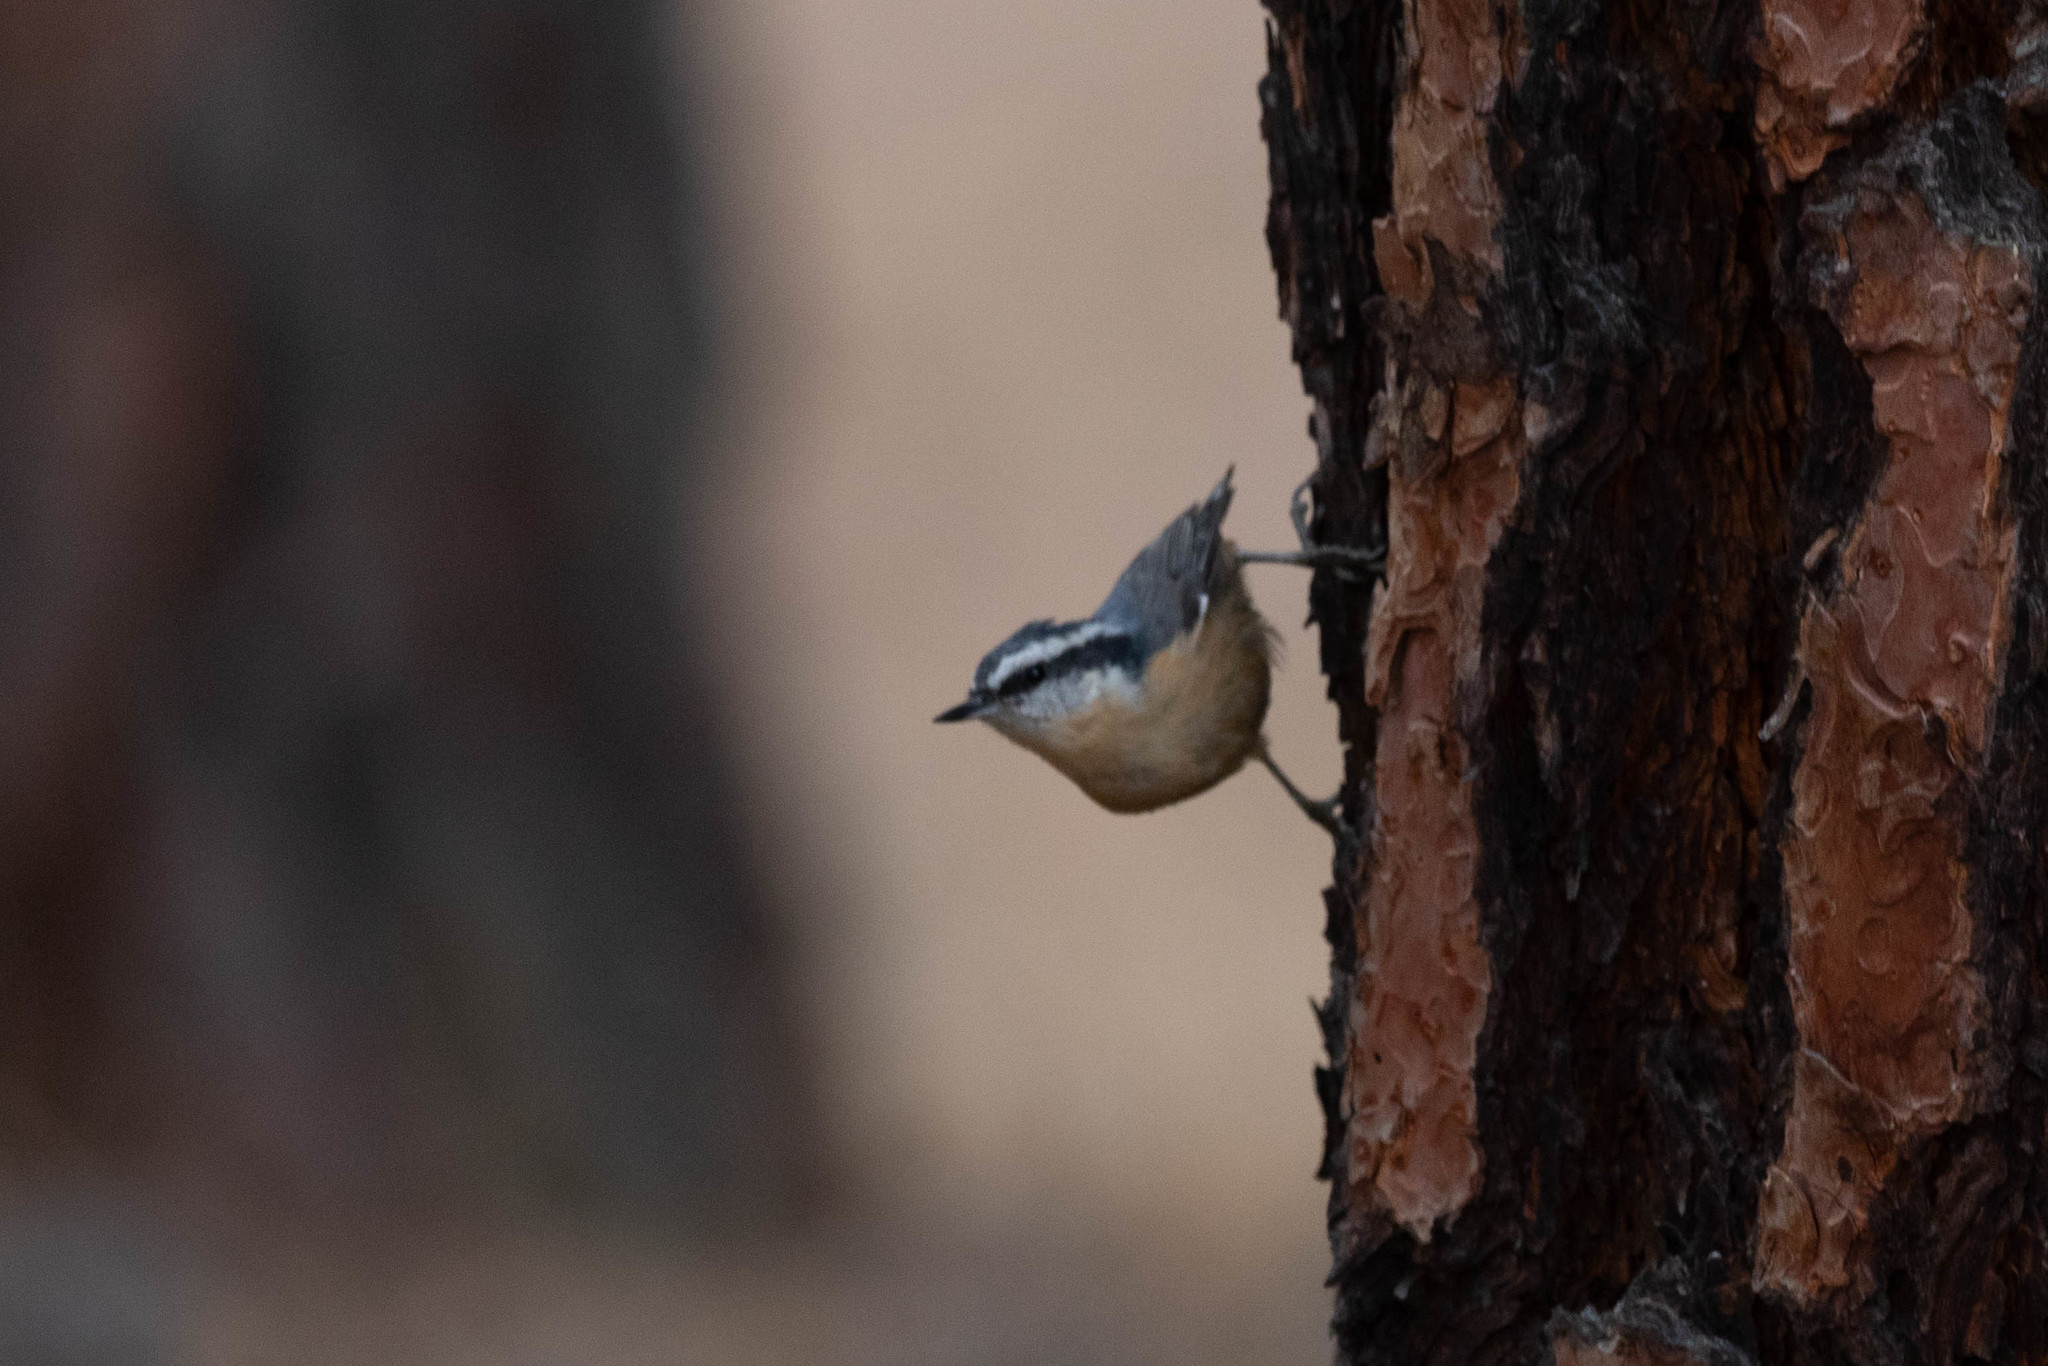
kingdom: Animalia
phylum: Chordata
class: Aves
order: Passeriformes
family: Sittidae
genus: Sitta
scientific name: Sitta canadensis
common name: Red-breasted nuthatch
